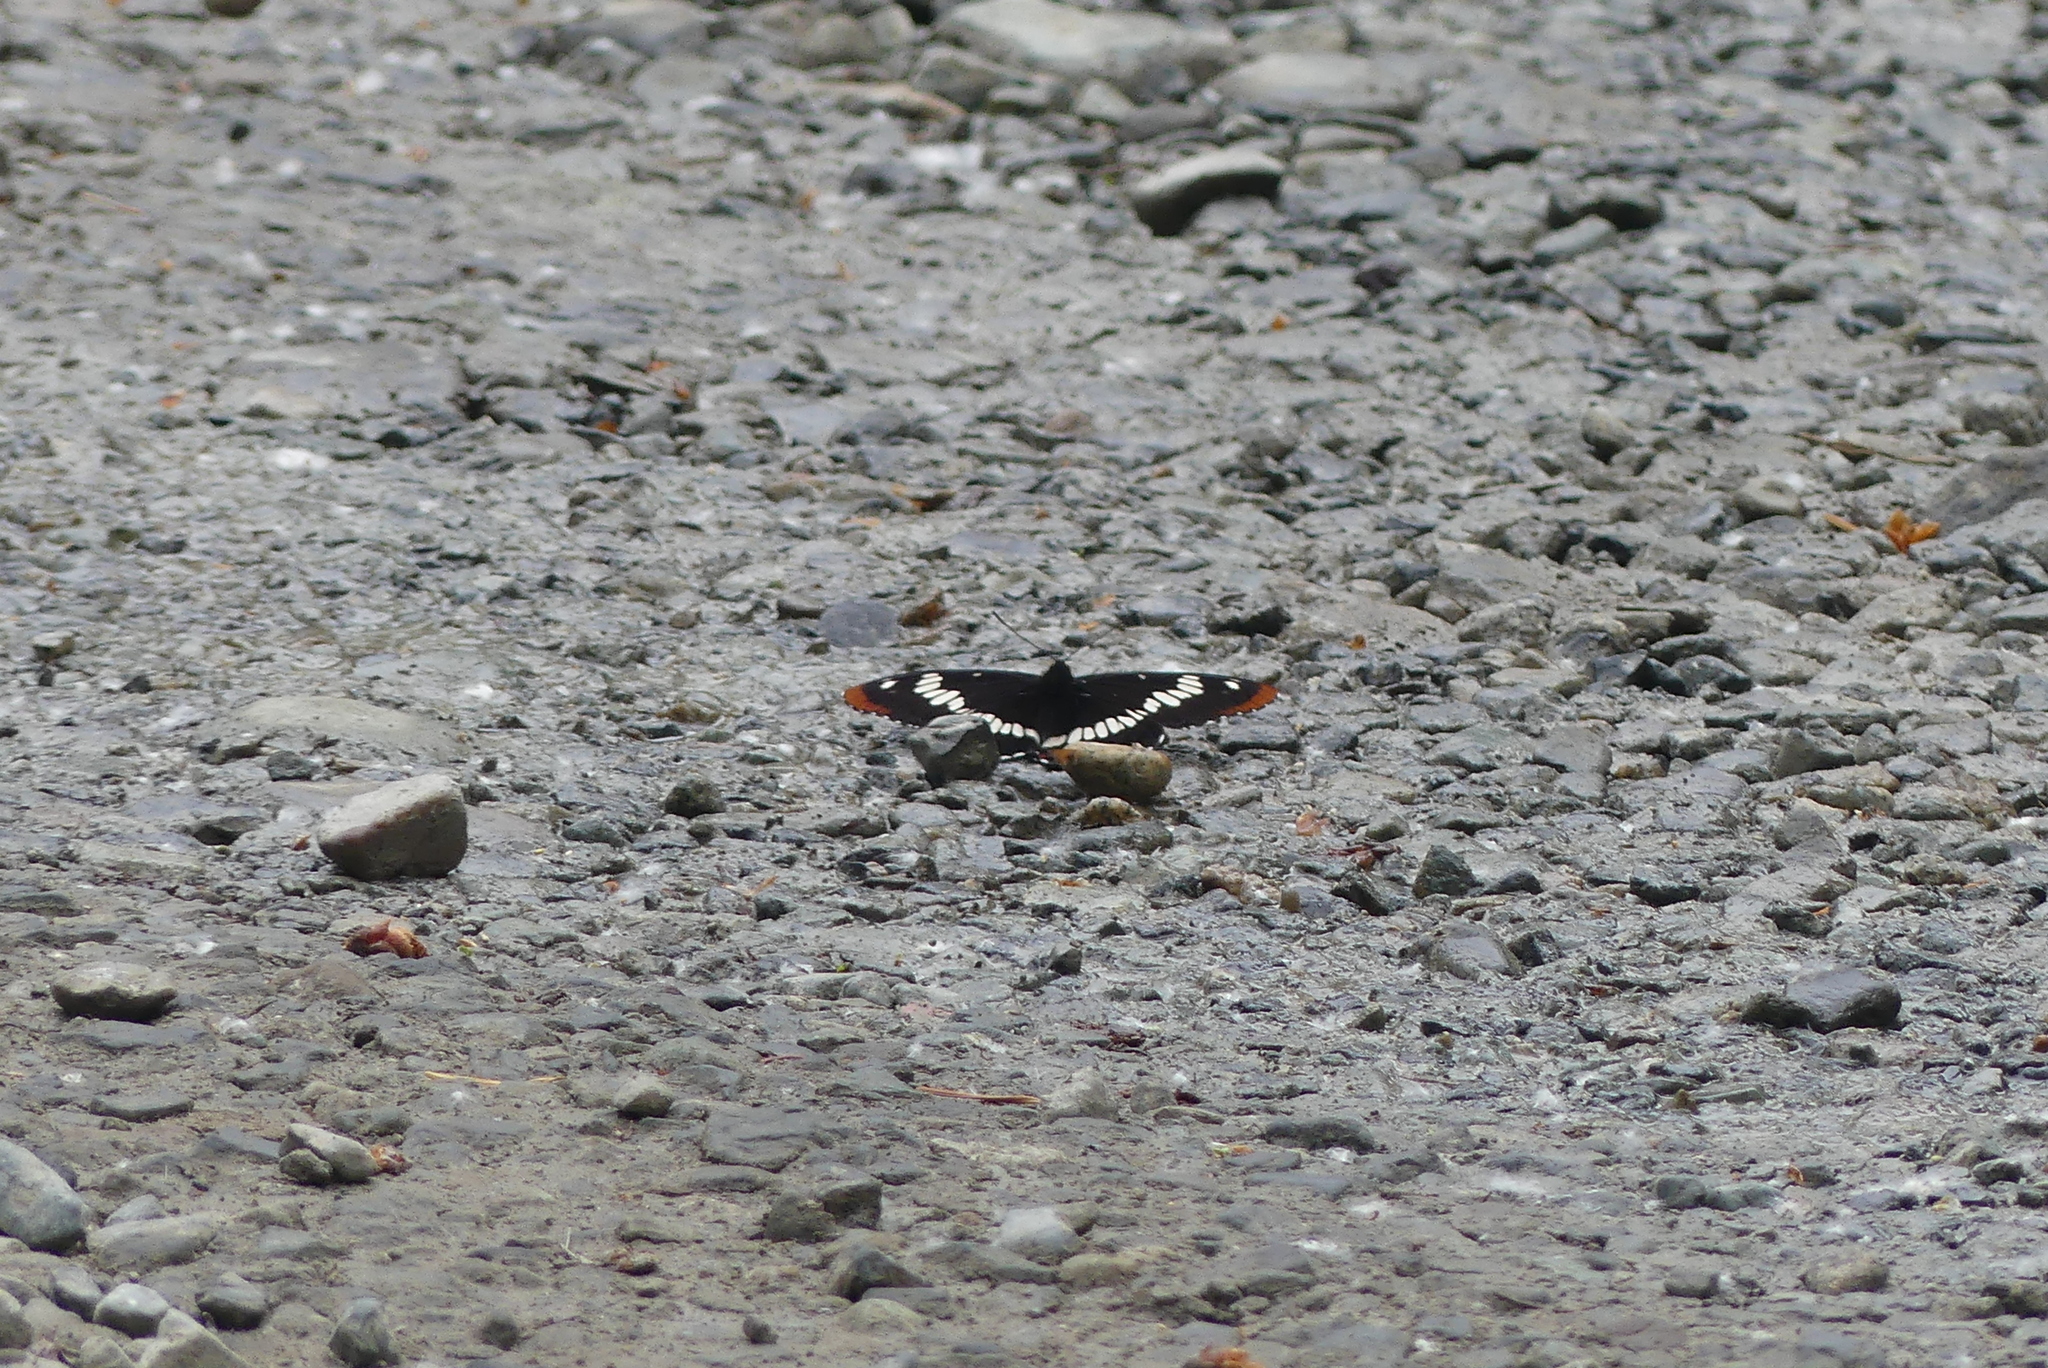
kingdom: Animalia
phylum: Arthropoda
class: Insecta
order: Lepidoptera
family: Nymphalidae
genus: Limenitis
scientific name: Limenitis lorquini
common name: Lorquin's admiral
